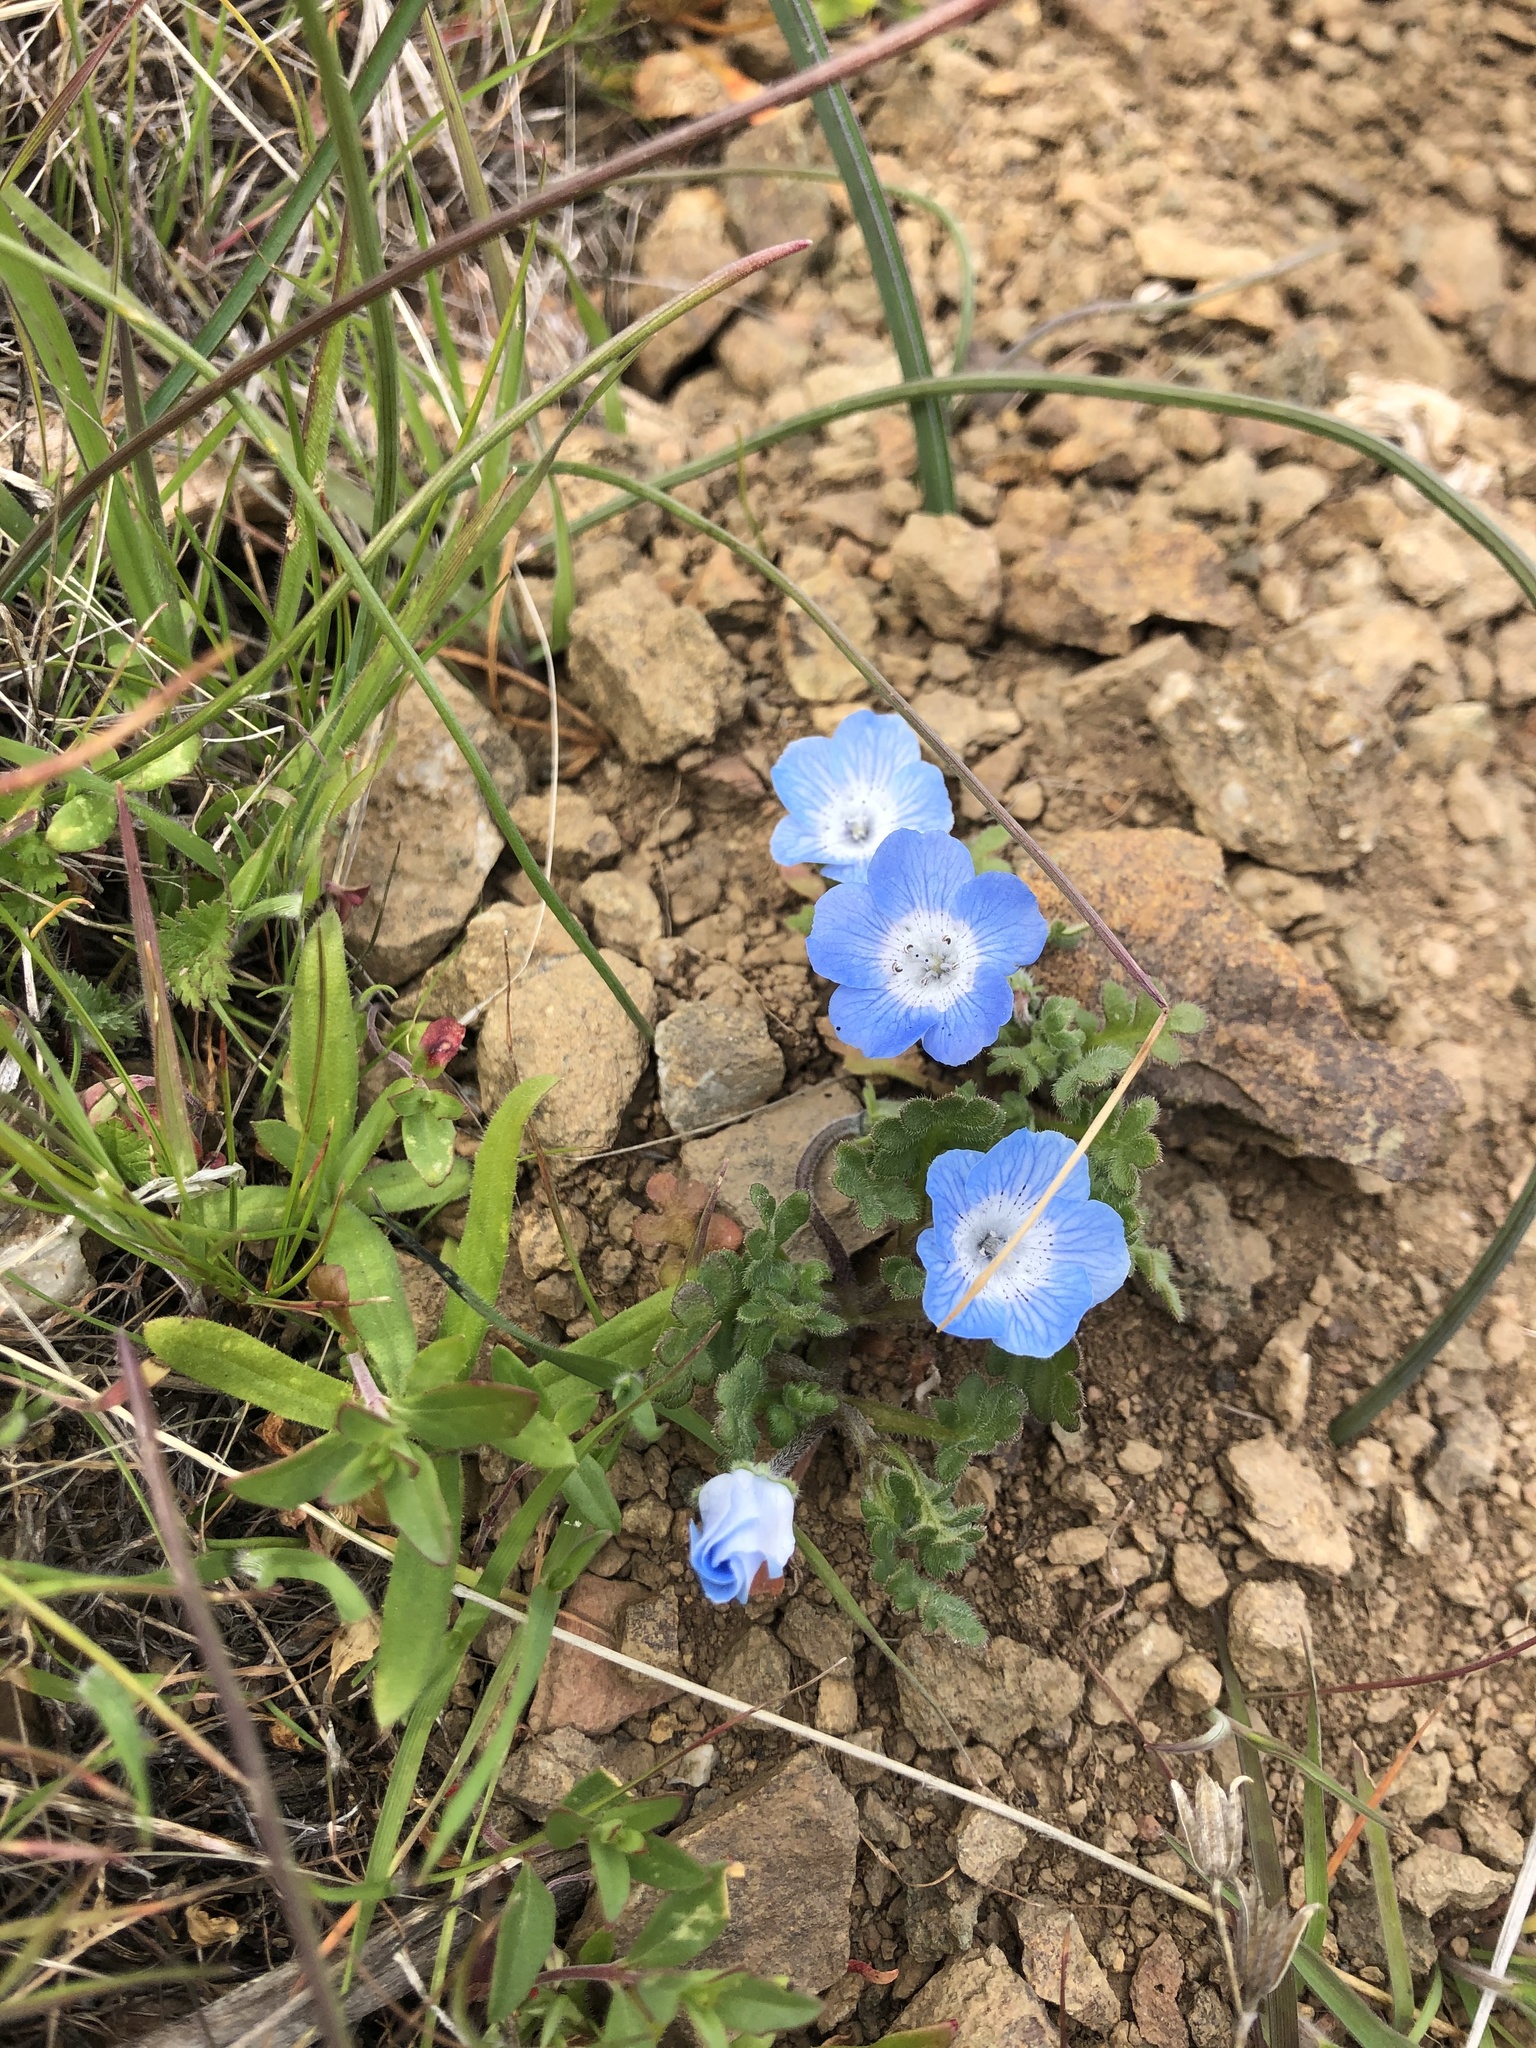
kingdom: Plantae
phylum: Tracheophyta
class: Magnoliopsida
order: Boraginales
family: Hydrophyllaceae
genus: Nemophila
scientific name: Nemophila menziesii
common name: Baby's-blue-eyes
